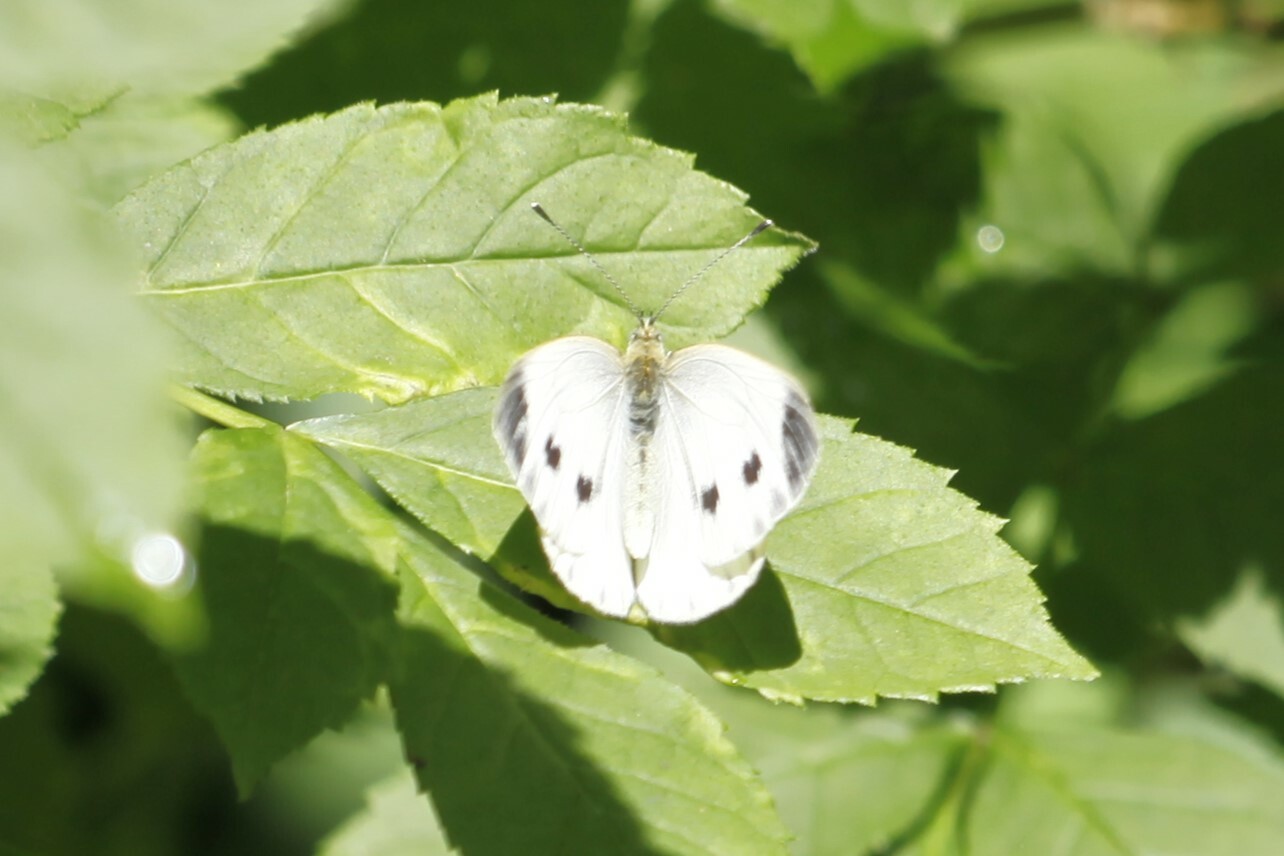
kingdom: Animalia
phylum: Arthropoda
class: Insecta
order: Lepidoptera
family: Pieridae
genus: Pieris
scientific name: Pieris napi
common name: Green-veined white
